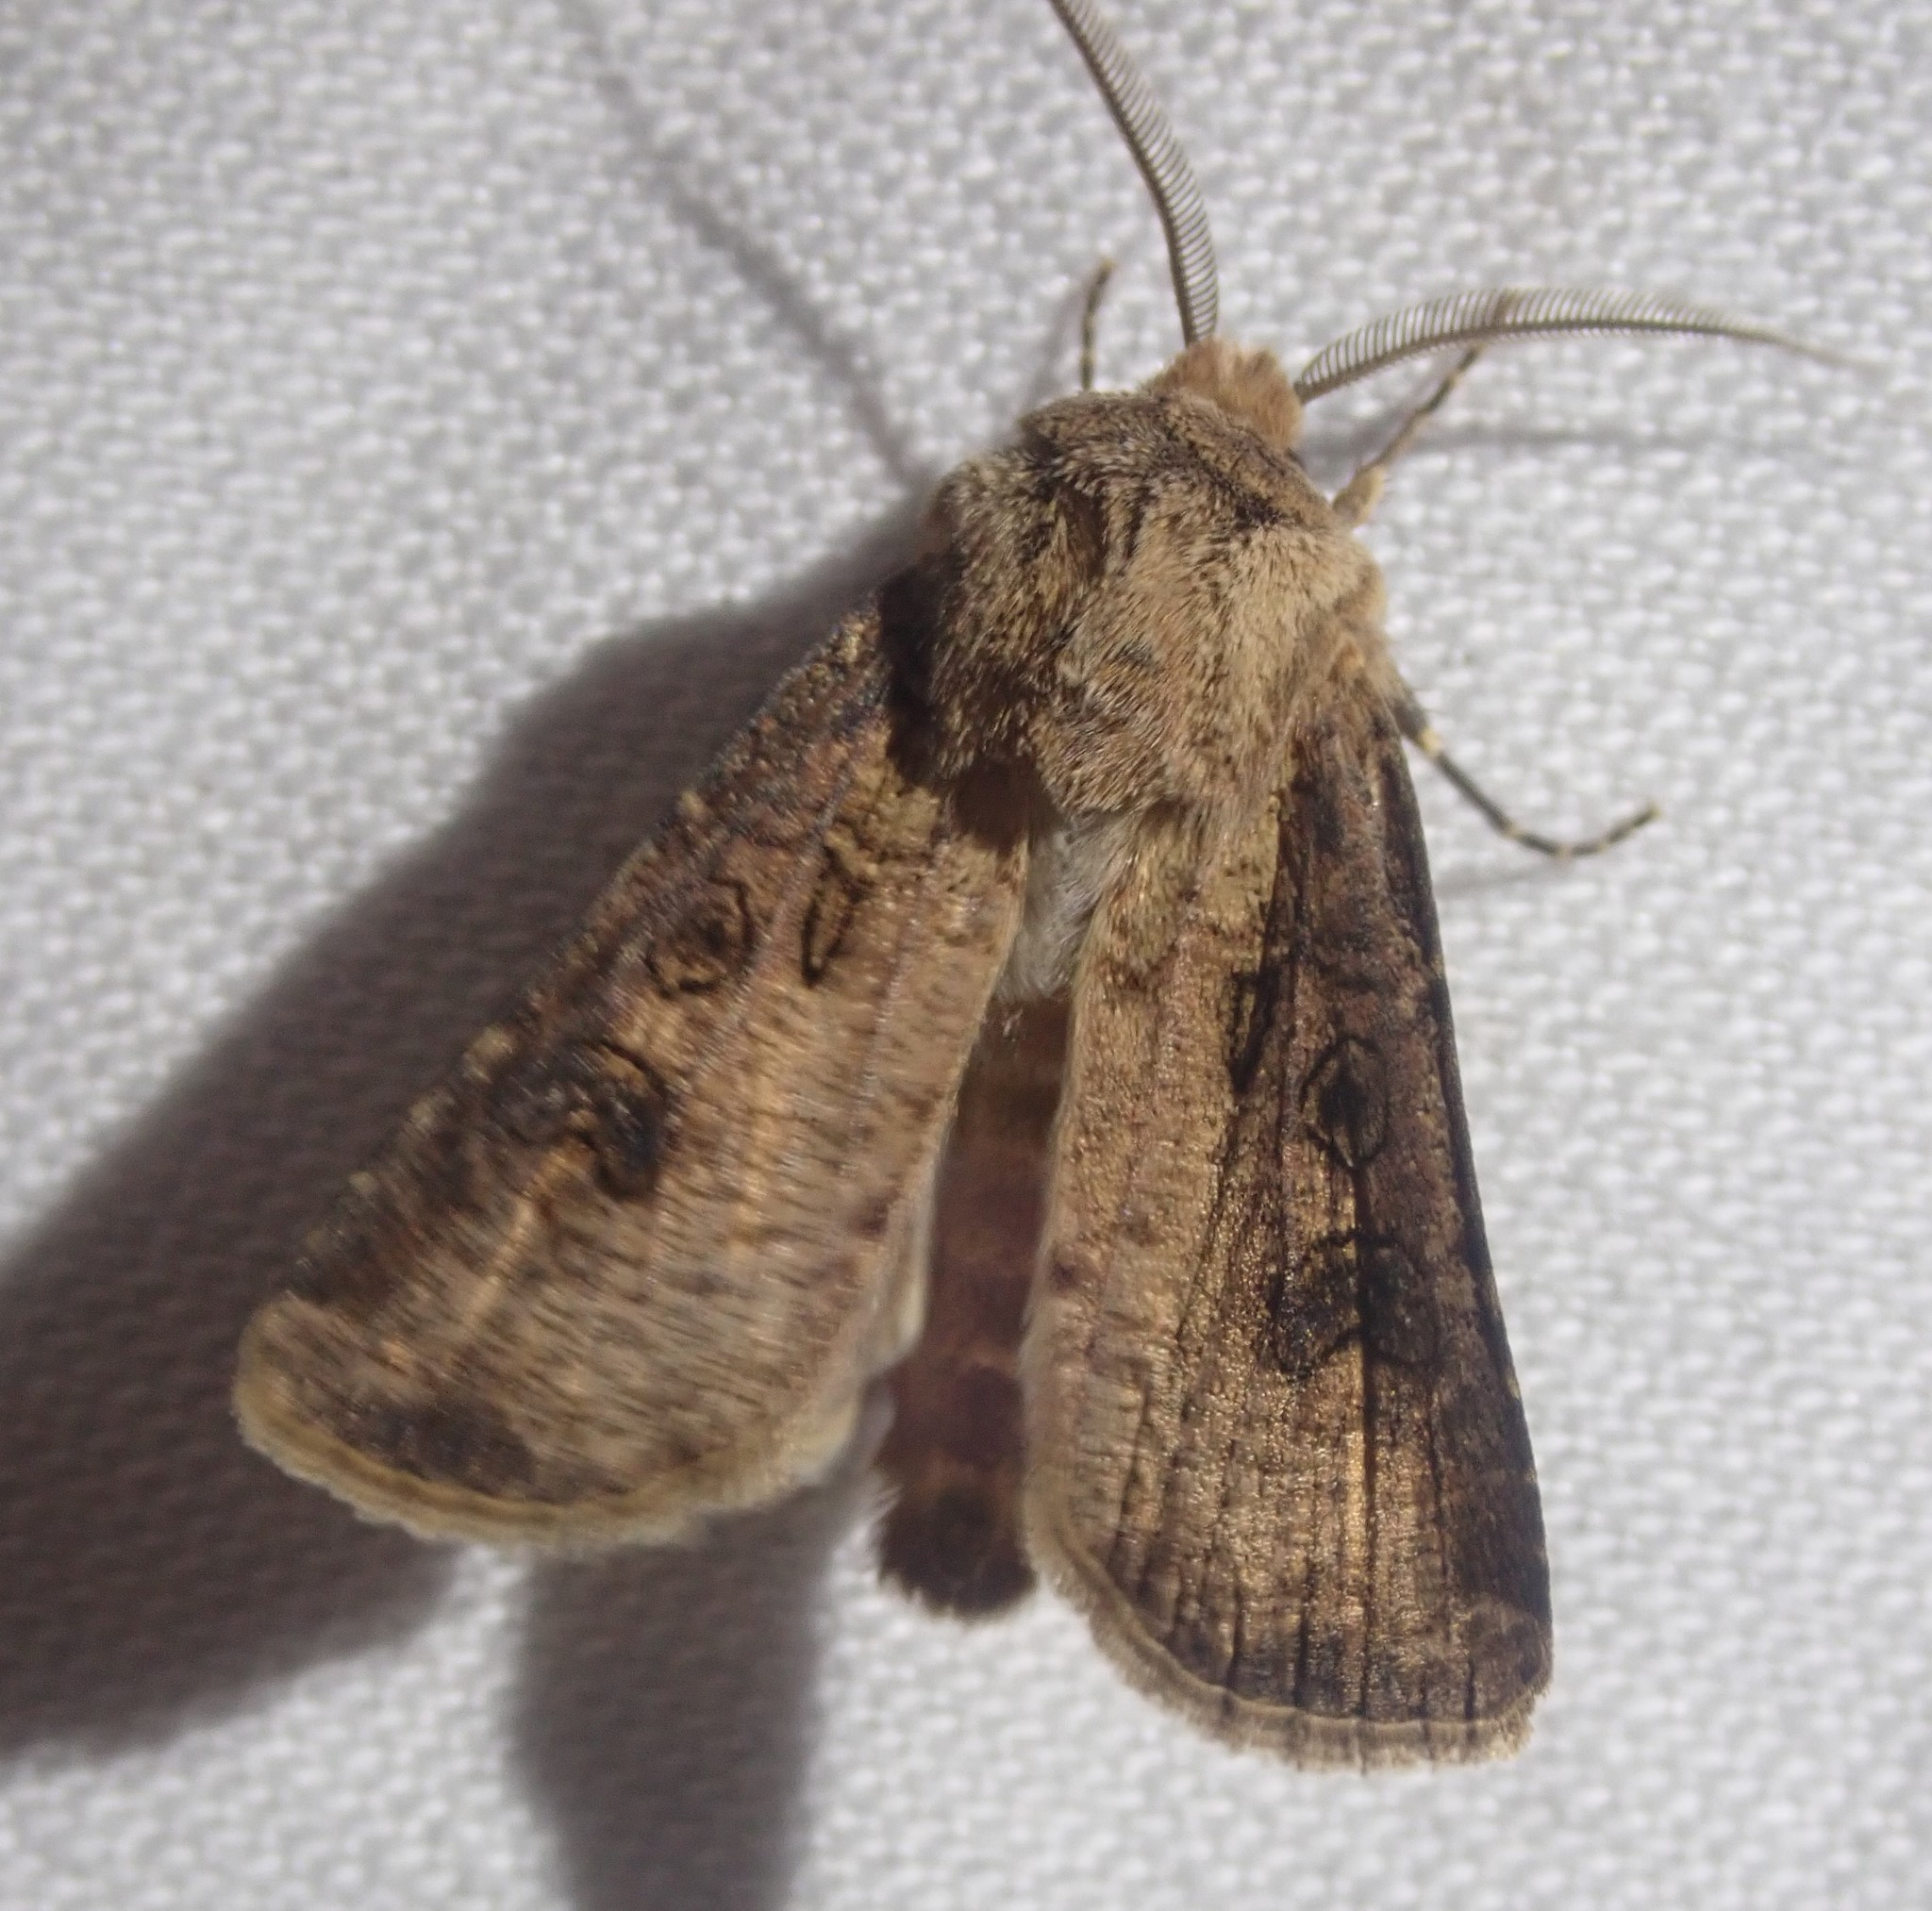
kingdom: Animalia
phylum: Arthropoda
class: Insecta
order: Lepidoptera
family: Noctuidae
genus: Agrotis
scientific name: Agrotis clavis
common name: Heart and club
